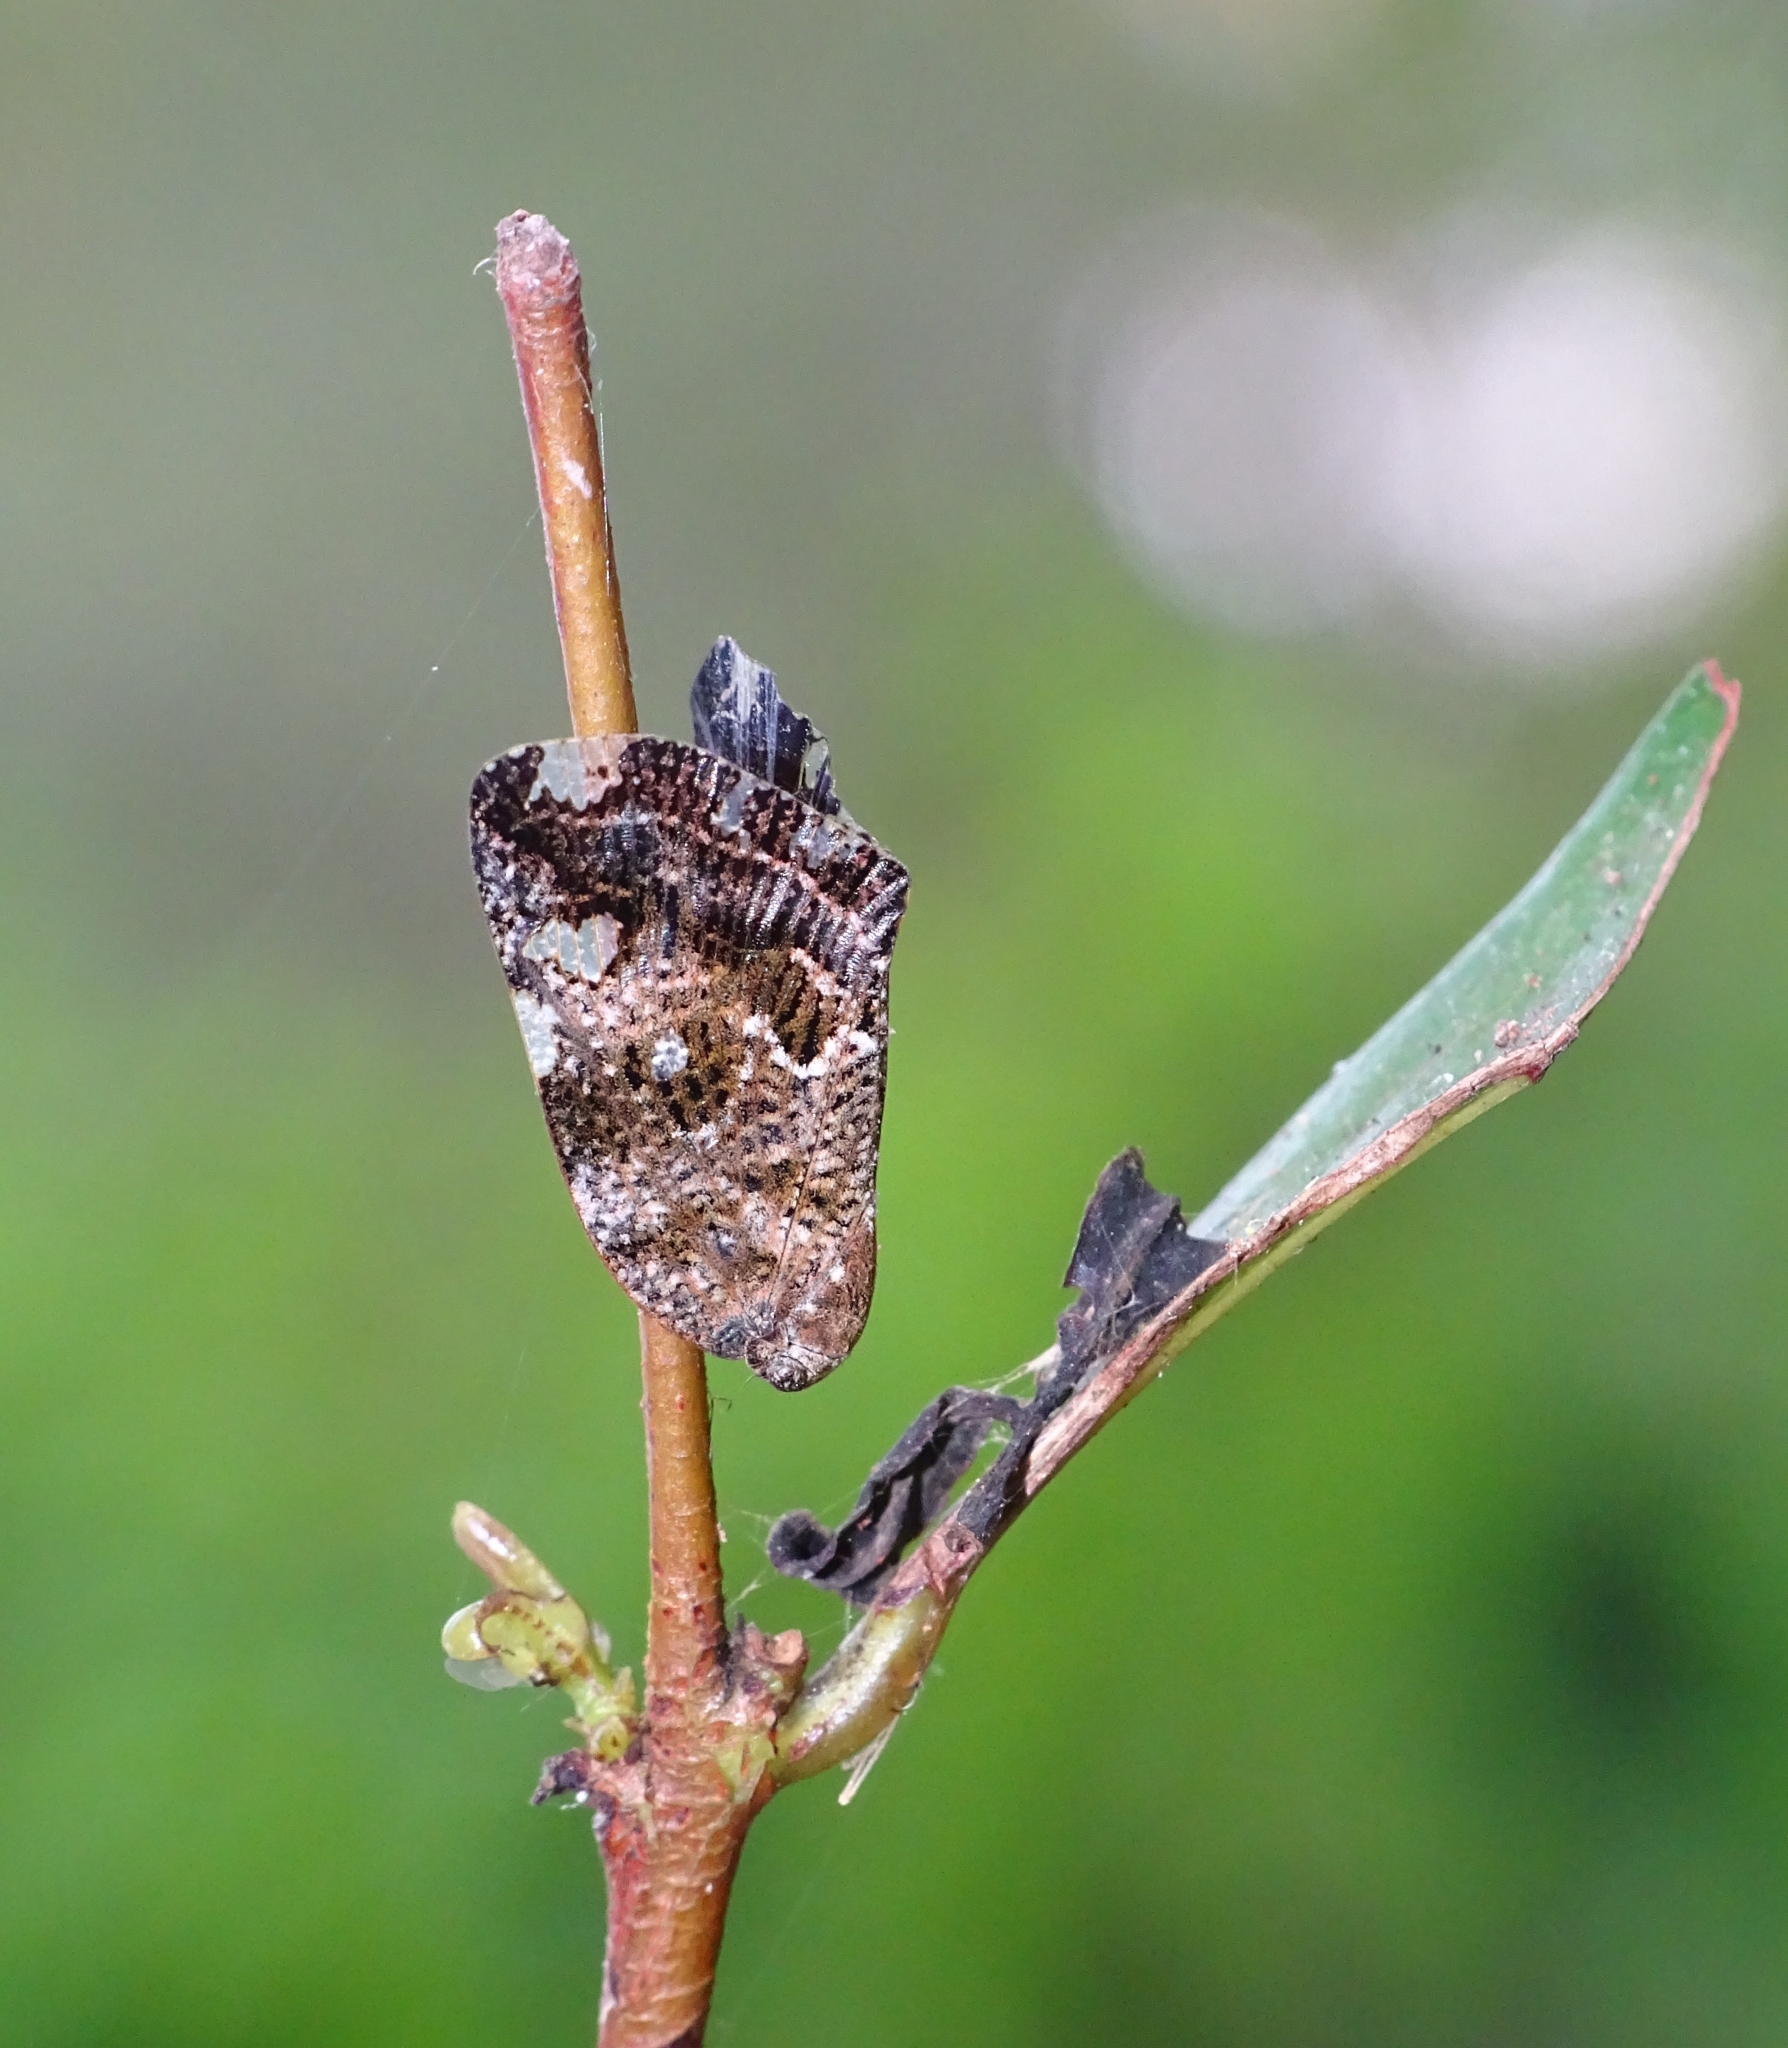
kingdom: Animalia
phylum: Arthropoda
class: Insecta
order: Hemiptera
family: Ricaniidae
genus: Ricania
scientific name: Ricania speculum
